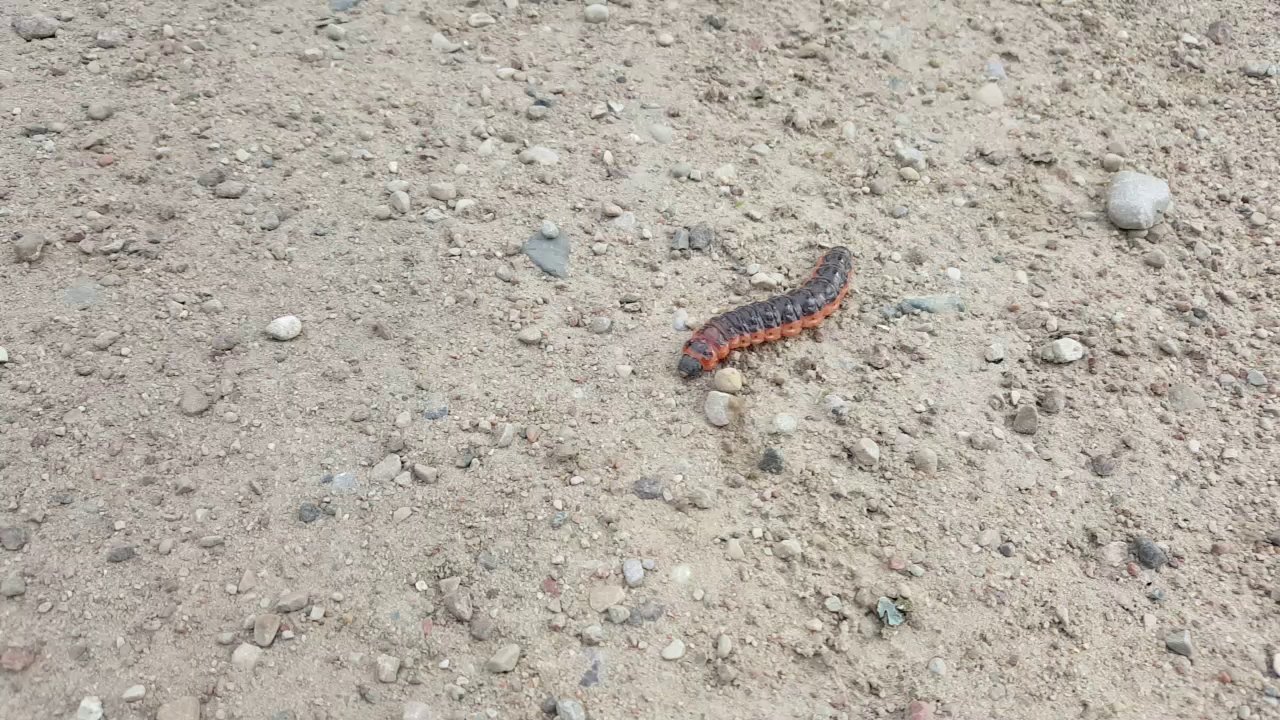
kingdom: Animalia
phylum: Arthropoda
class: Insecta
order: Lepidoptera
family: Cossidae
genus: Cossus
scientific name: Cossus cossus
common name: Goat moth
